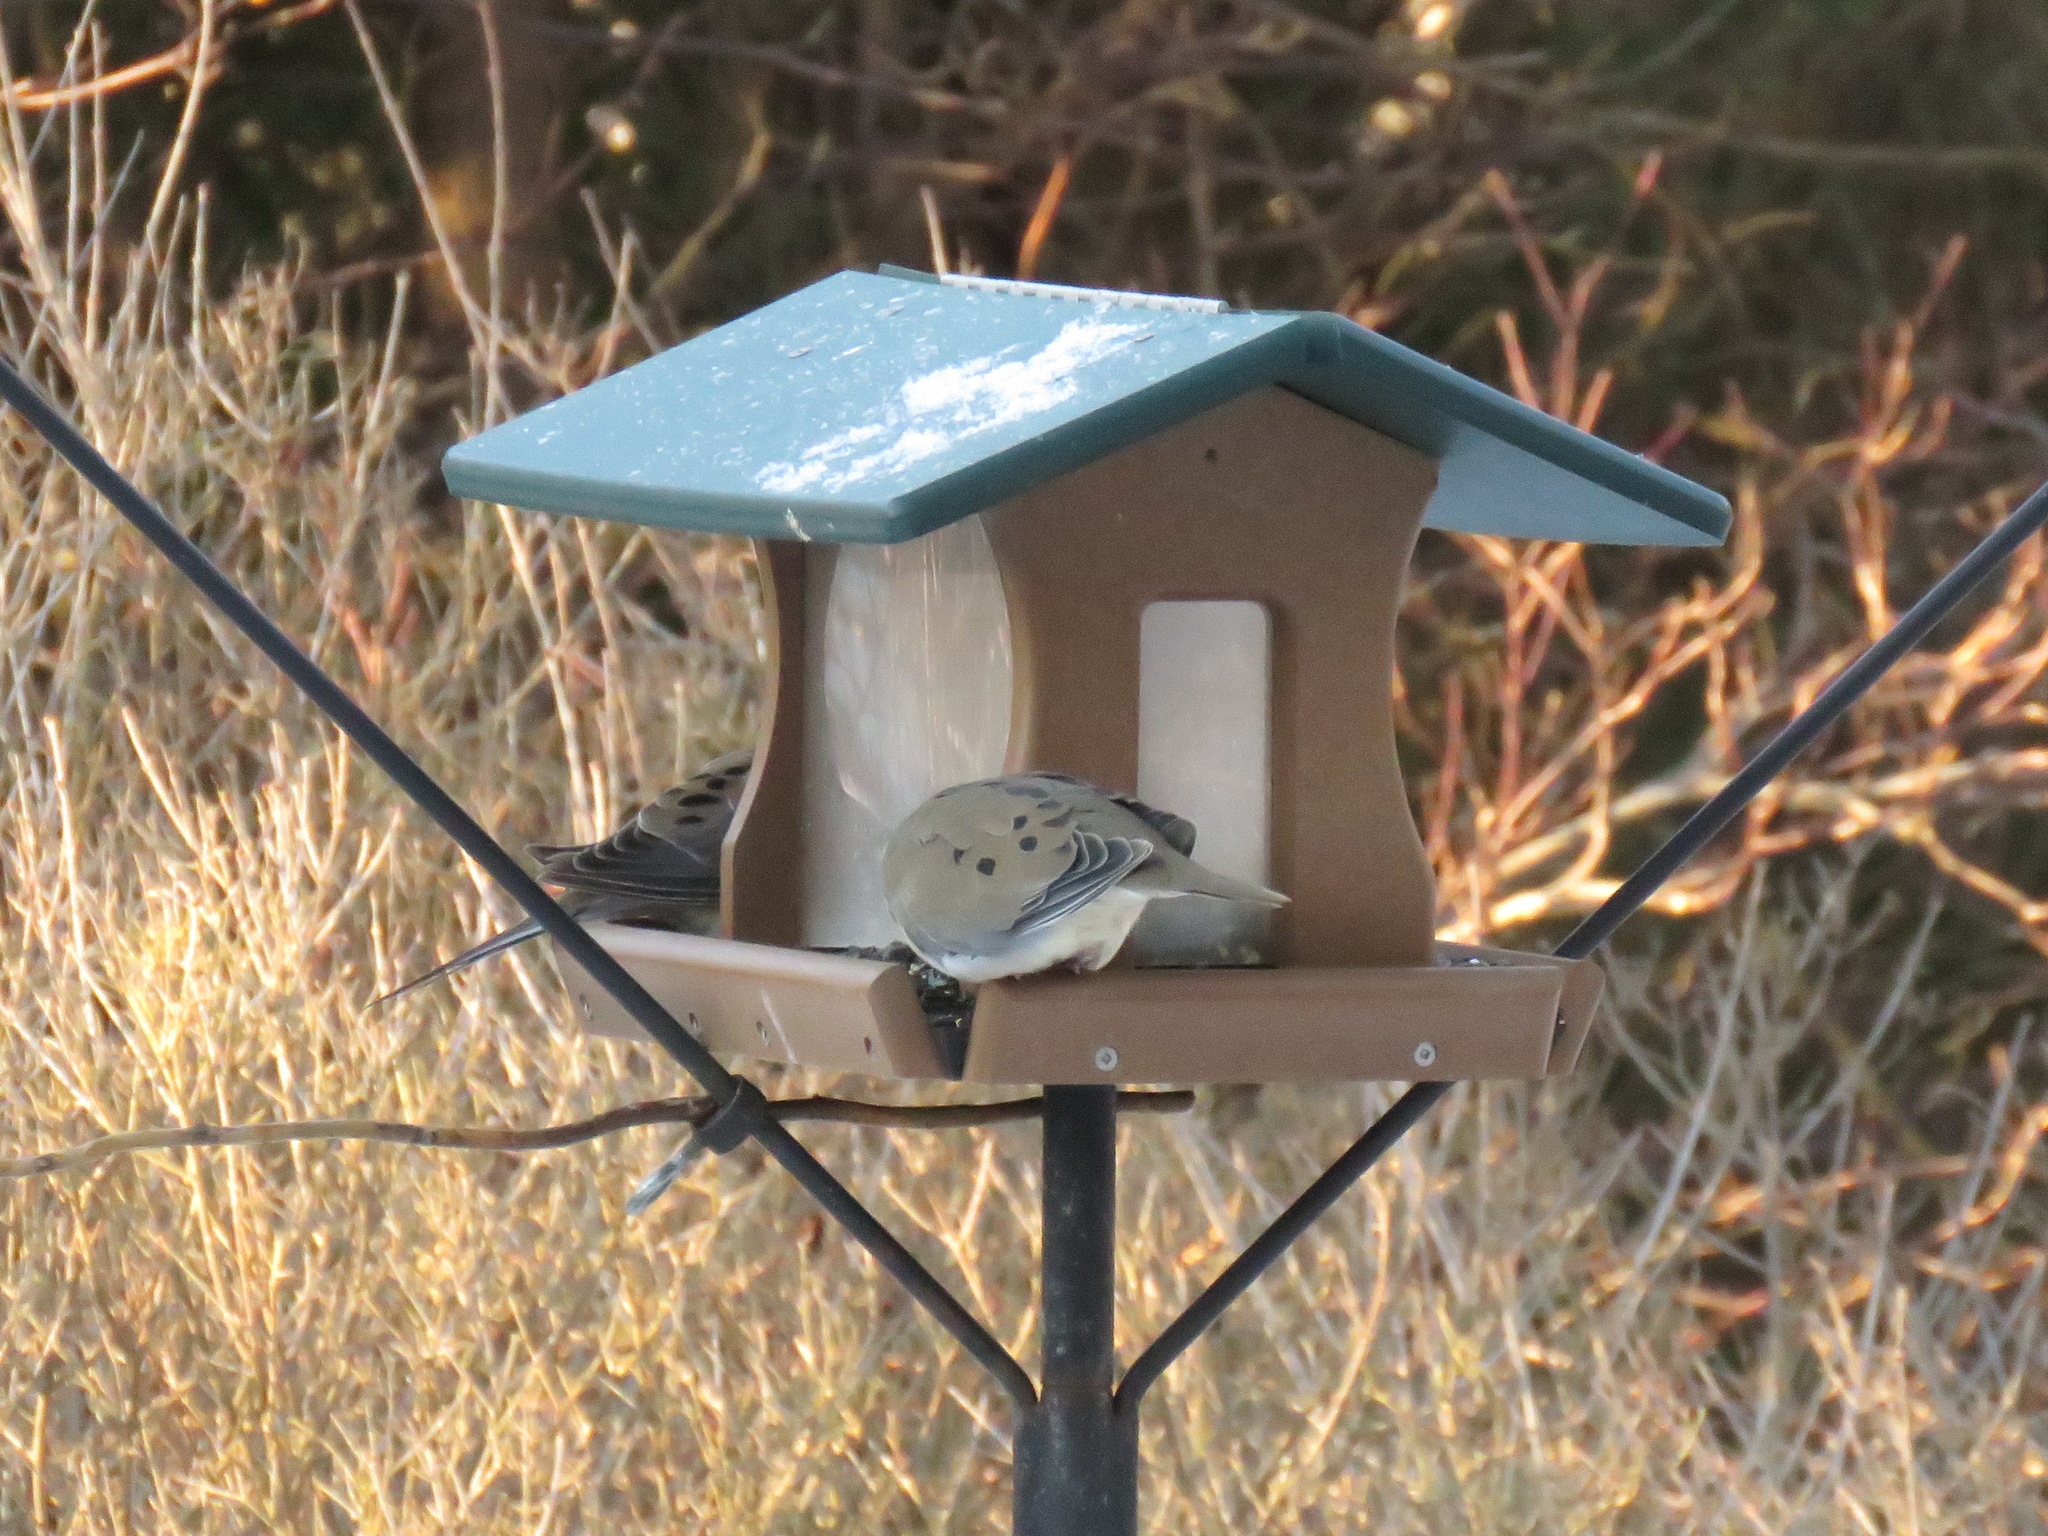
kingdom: Animalia
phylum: Chordata
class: Aves
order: Columbiformes
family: Columbidae
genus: Zenaida
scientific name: Zenaida macroura
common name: Mourning dove
